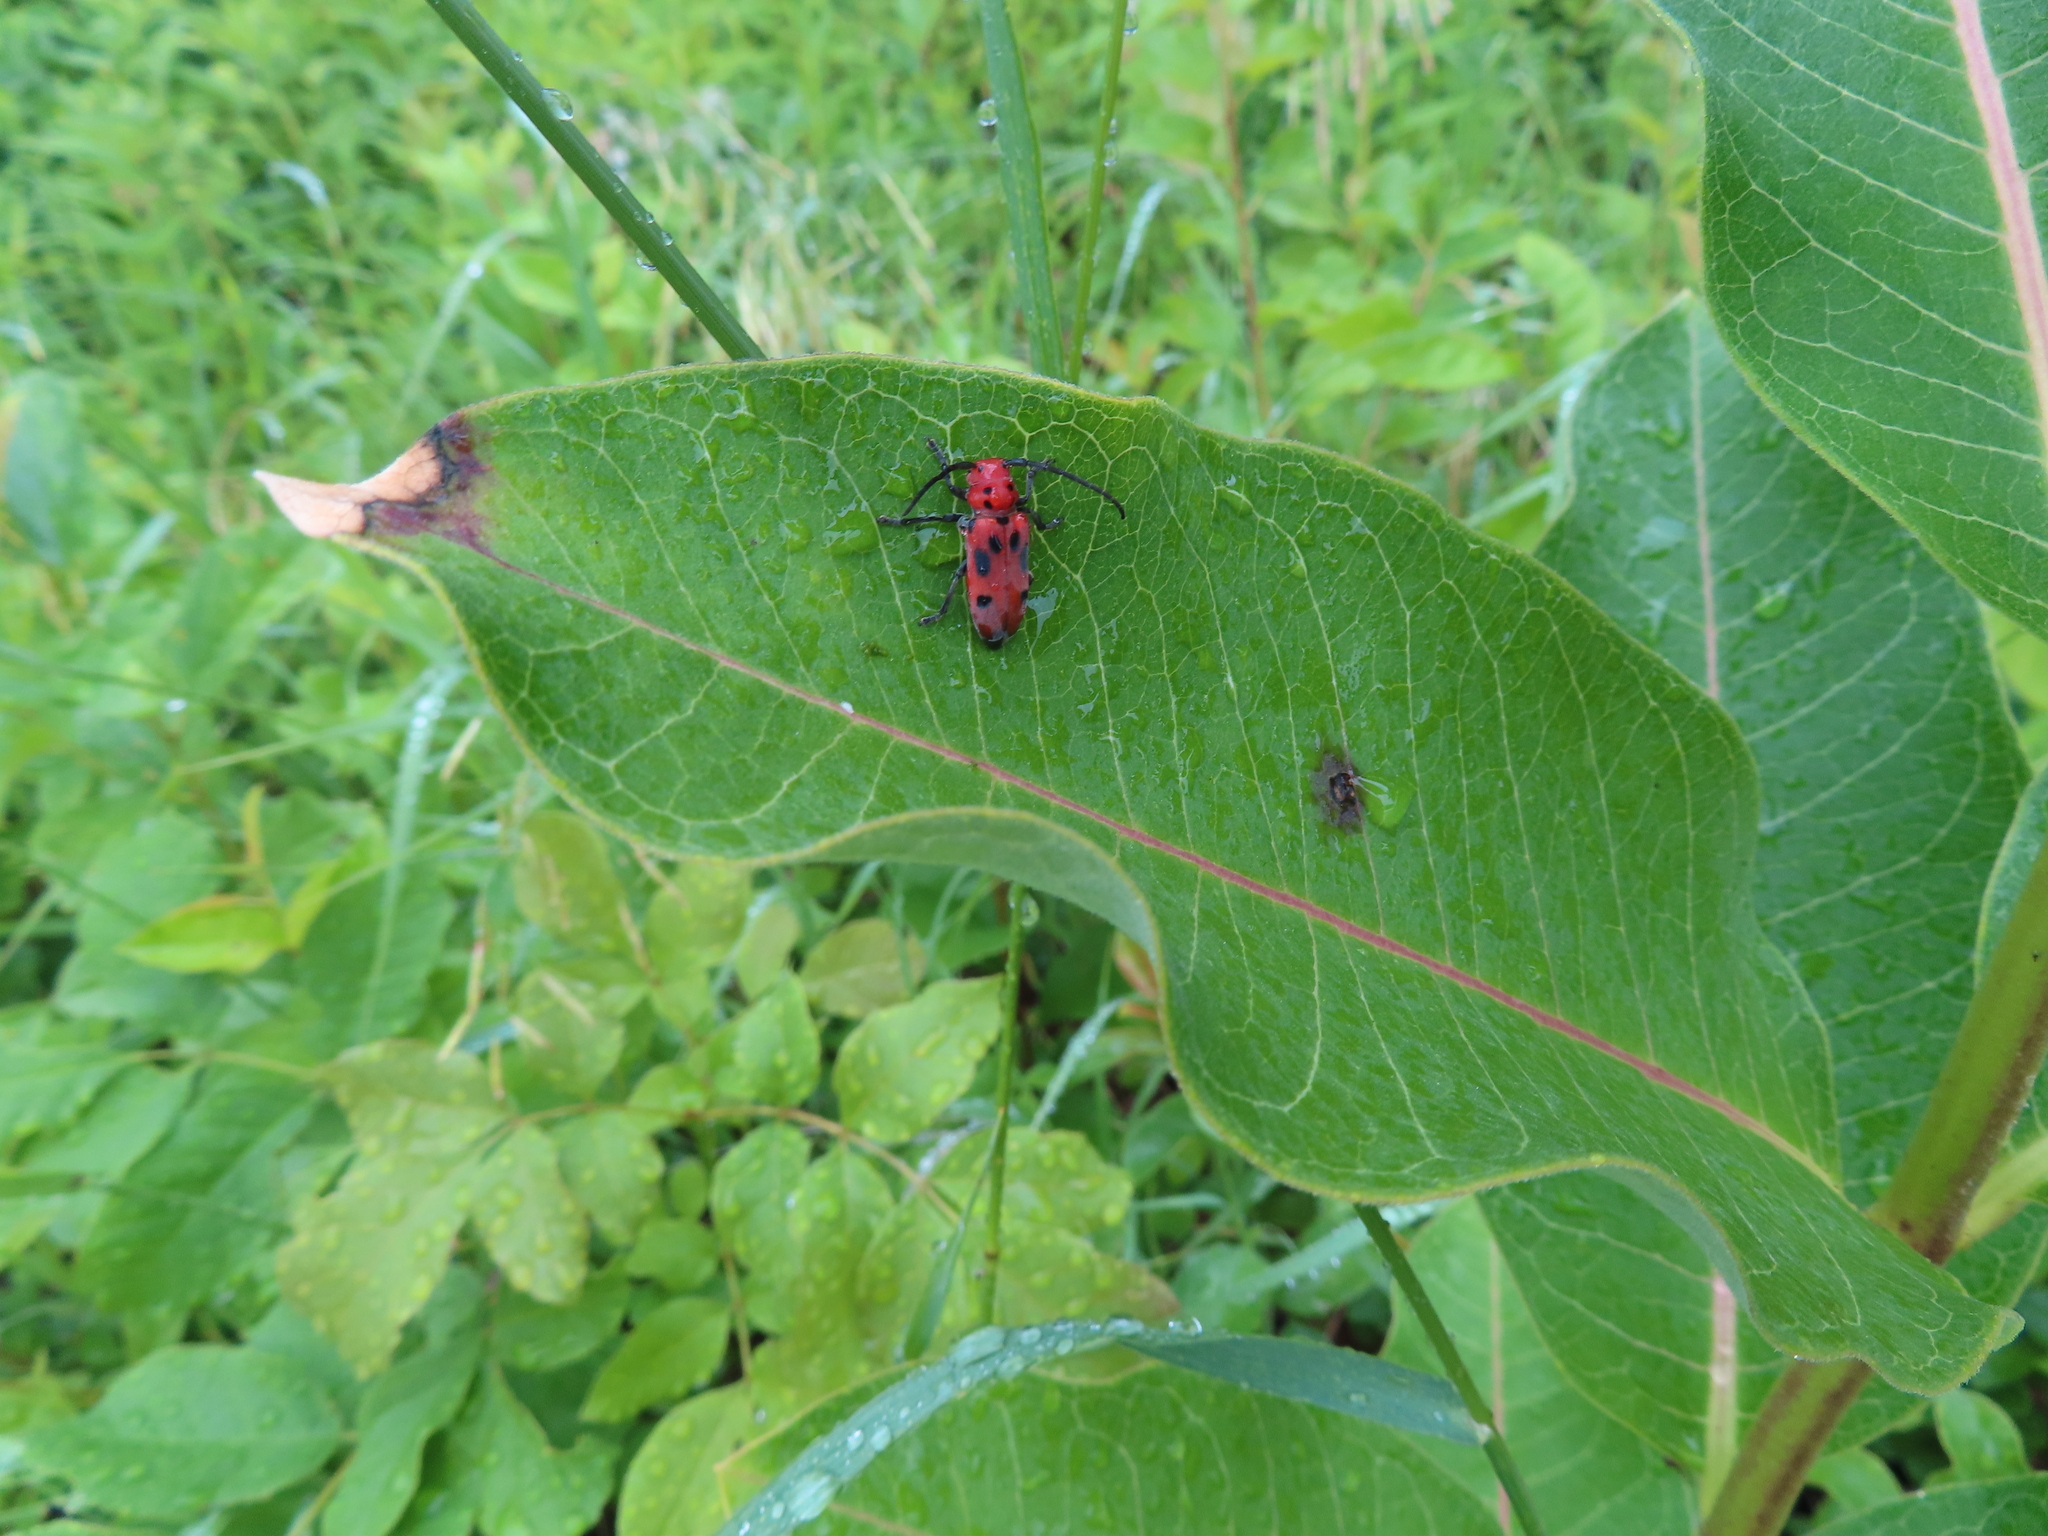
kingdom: Animalia
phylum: Arthropoda
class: Insecta
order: Coleoptera
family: Cerambycidae
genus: Tetraopes
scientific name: Tetraopes tetrophthalmus
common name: Red milkweed beetle
